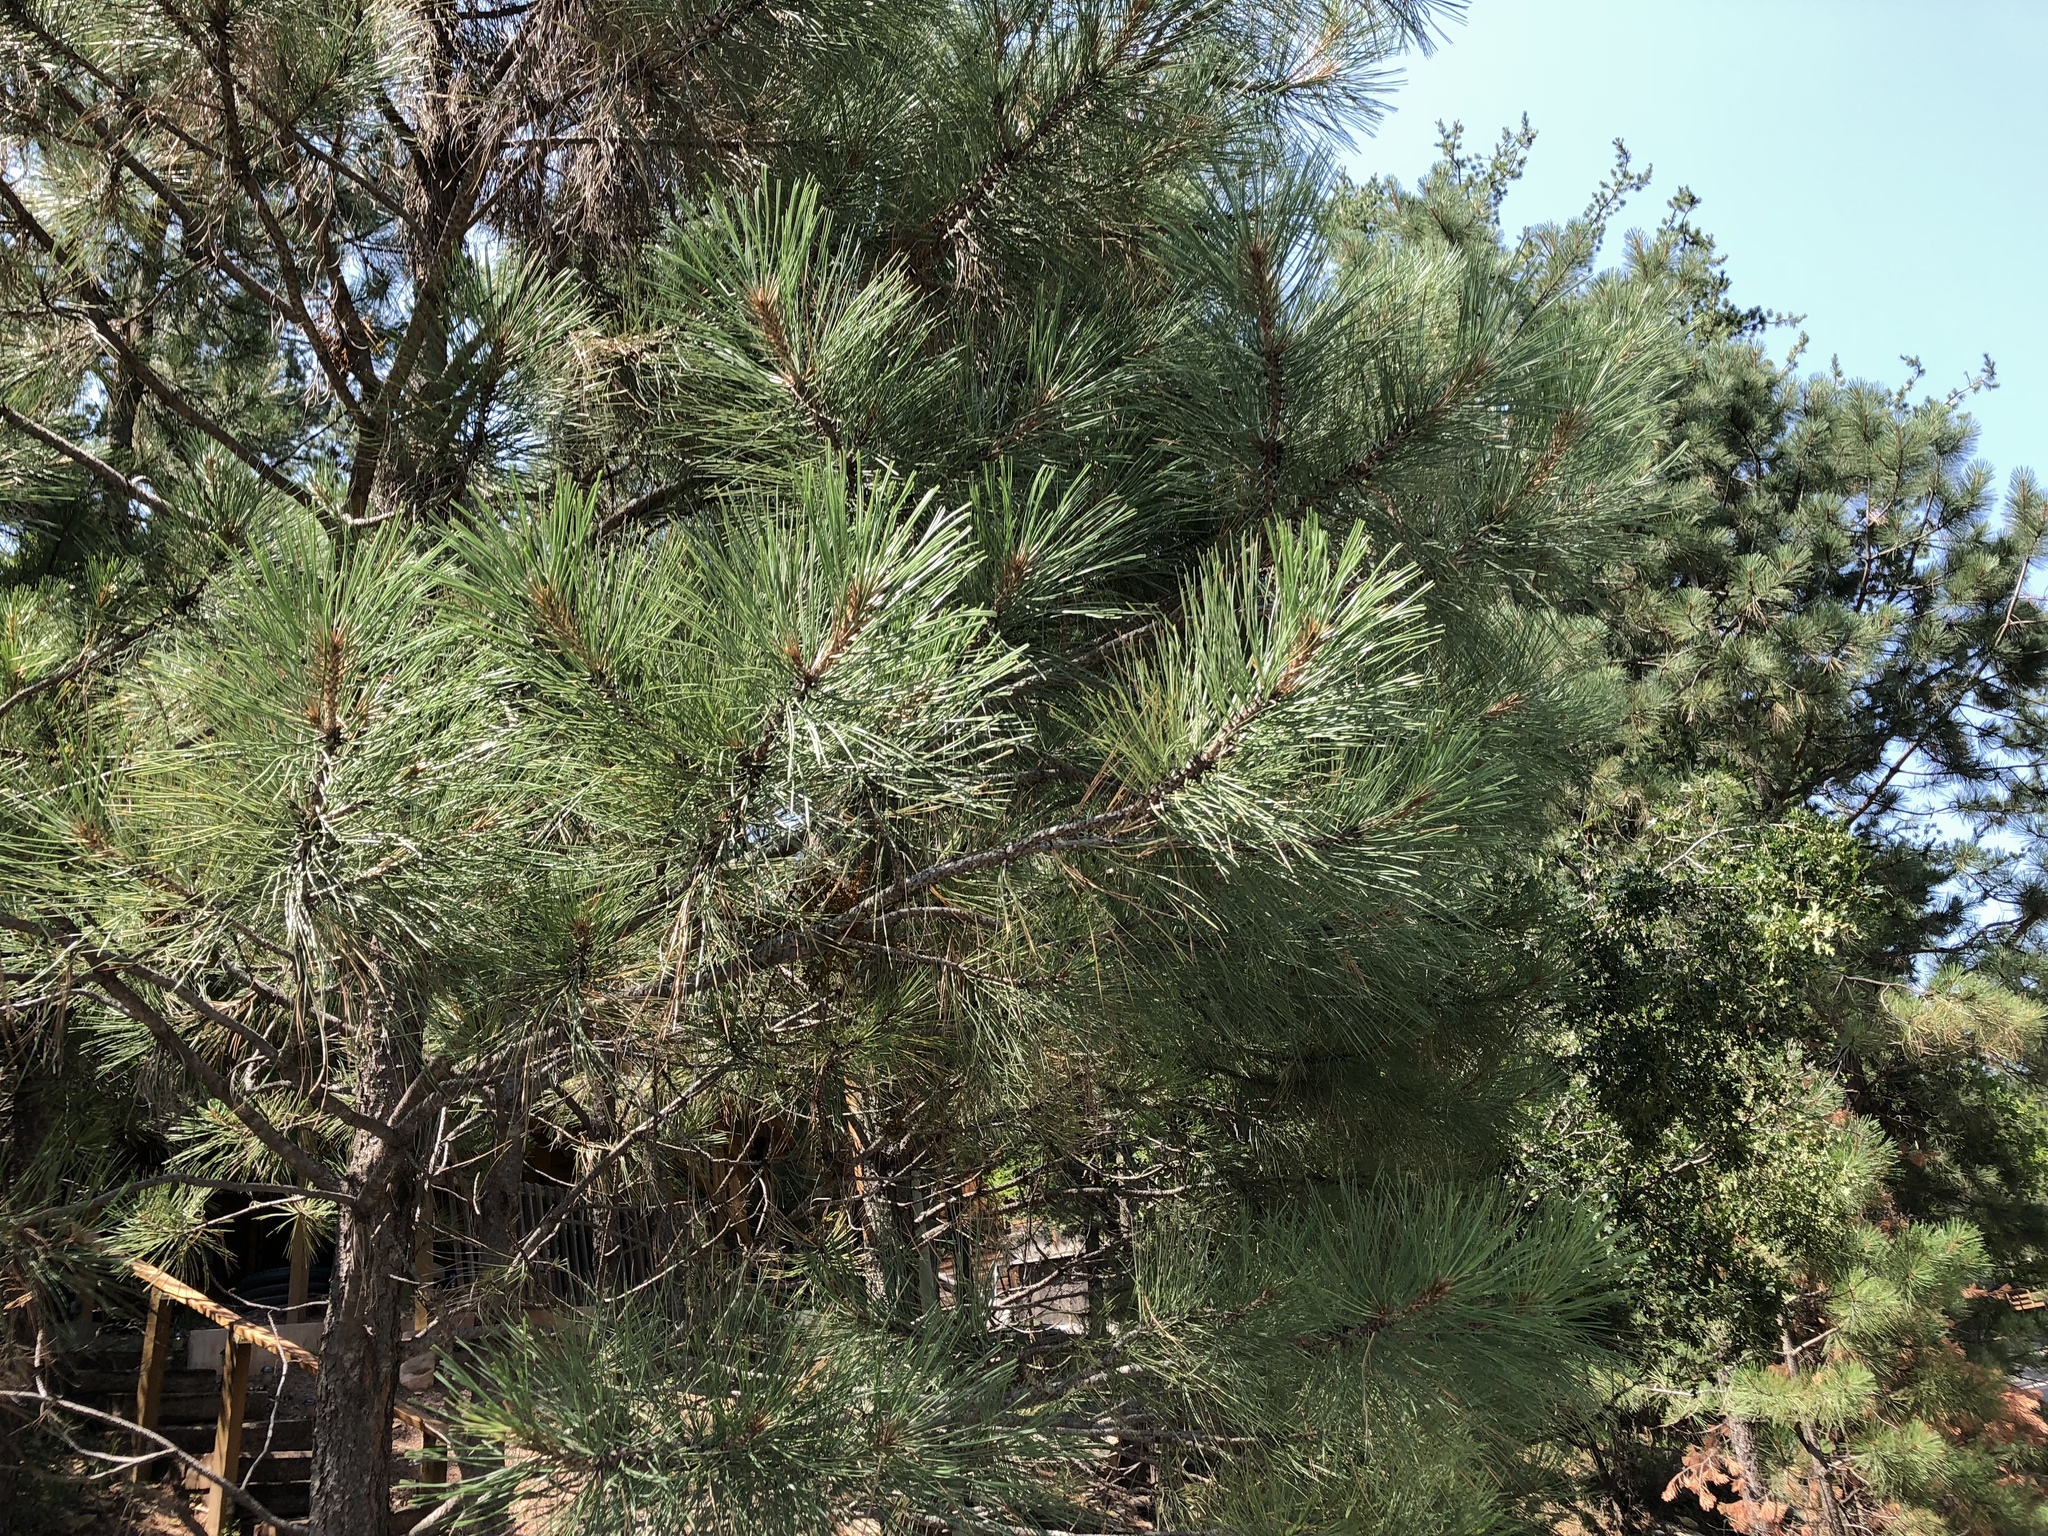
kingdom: Plantae
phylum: Tracheophyta
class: Pinopsida
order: Pinales
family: Pinaceae
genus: Pinus
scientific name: Pinus ponderosa
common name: Western yellow-pine
